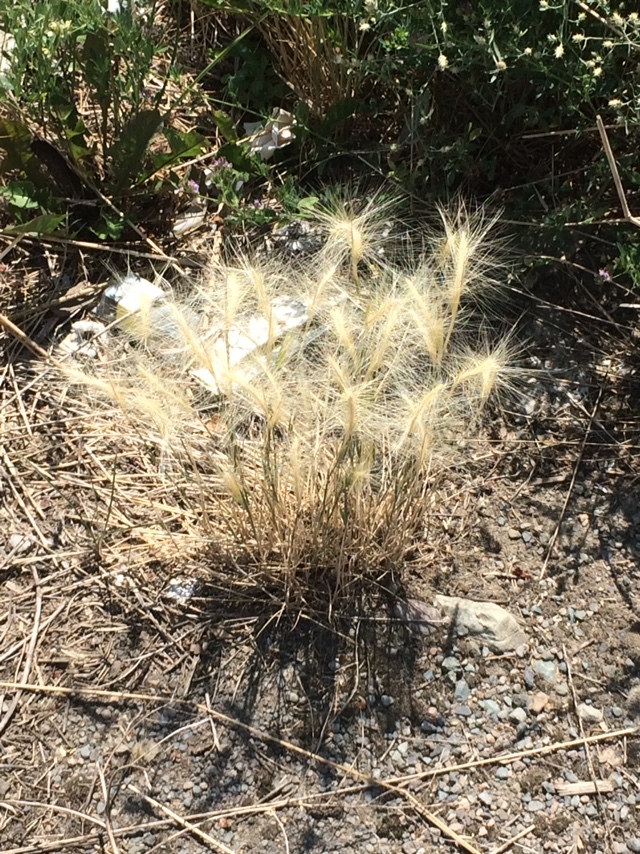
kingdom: Plantae
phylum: Tracheophyta
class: Liliopsida
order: Poales
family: Poaceae
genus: Hordeum
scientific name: Hordeum jubatum
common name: Foxtail barley
